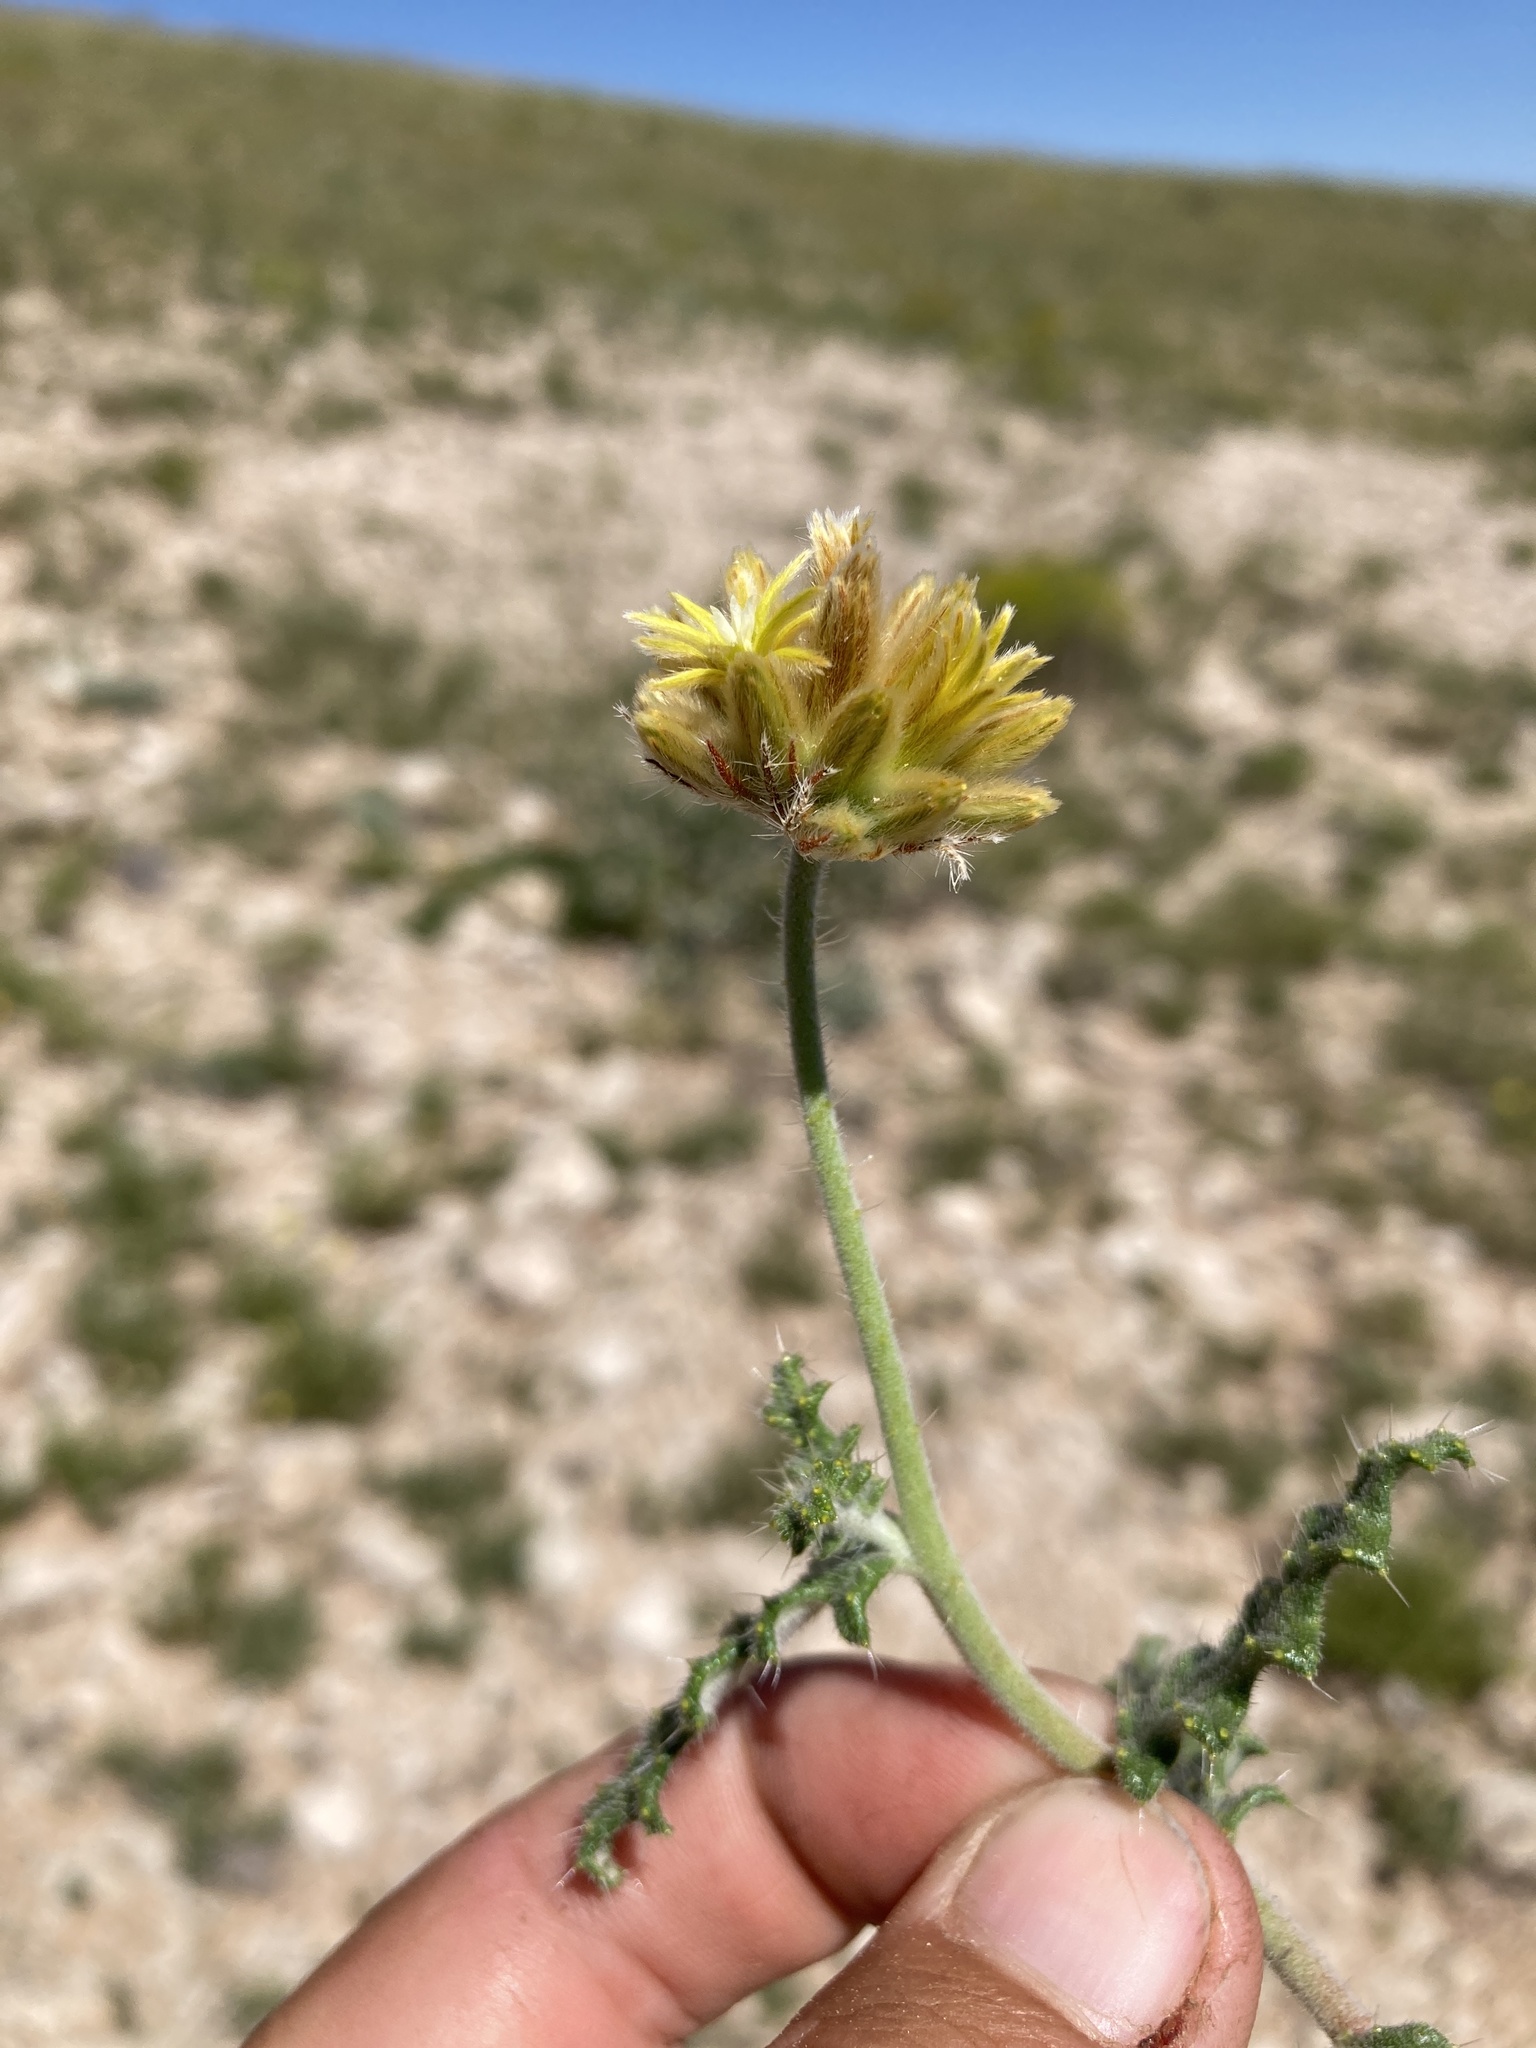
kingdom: Plantae
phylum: Tracheophyta
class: Magnoliopsida
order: Cornales
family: Loasaceae
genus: Cevallia
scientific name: Cevallia sinuata
